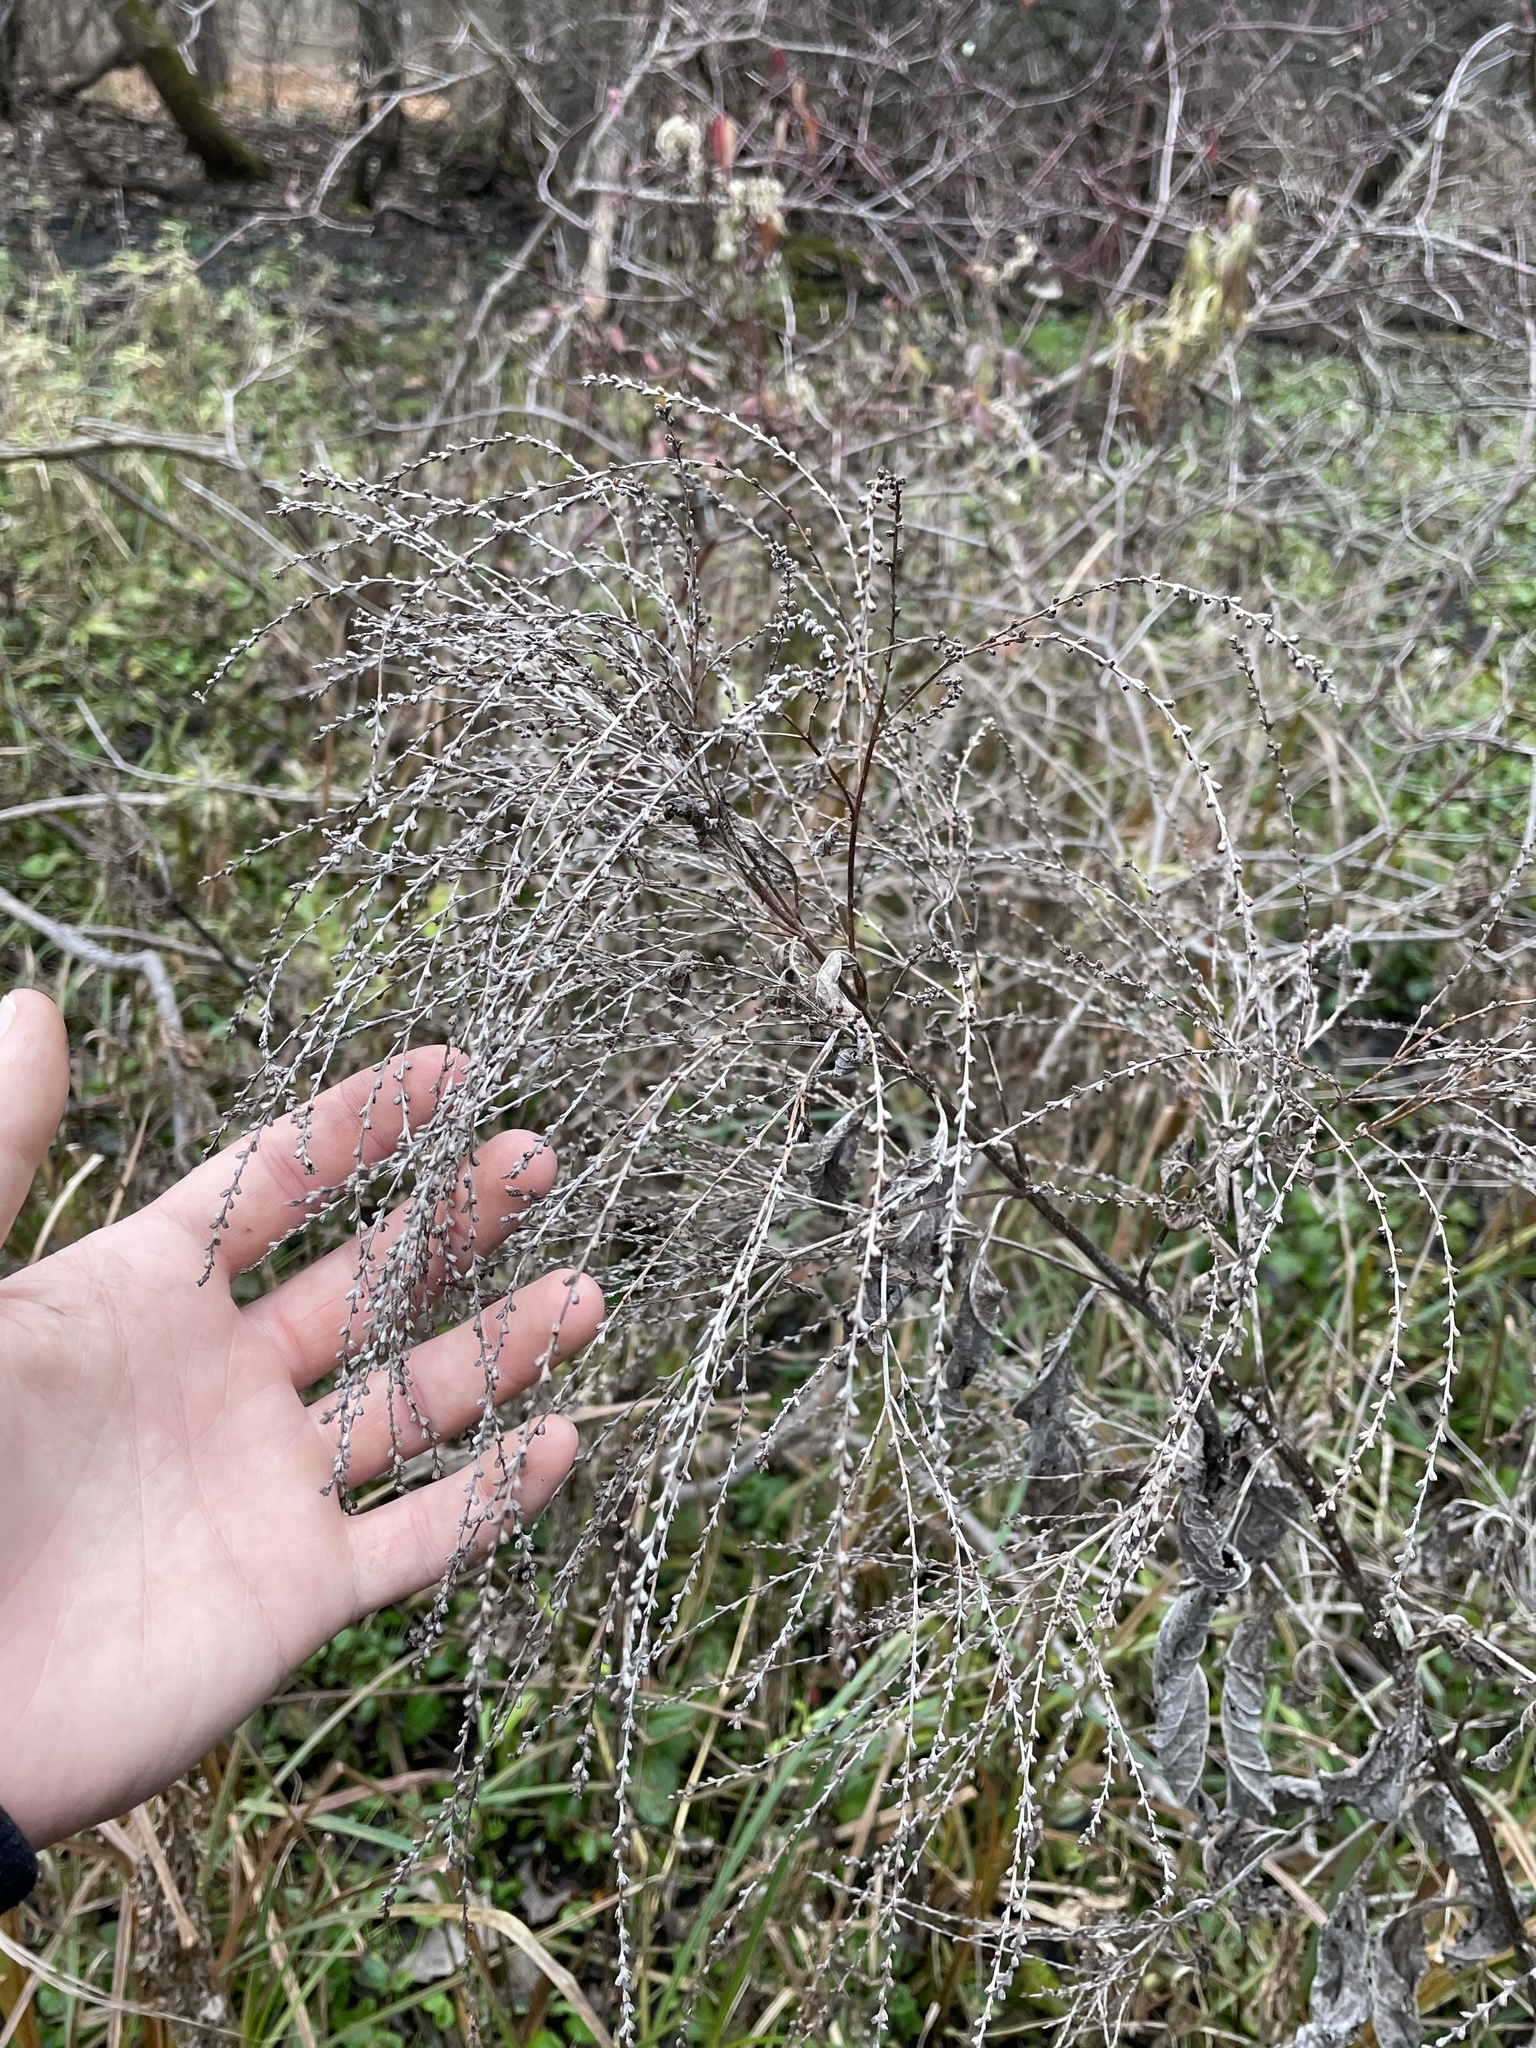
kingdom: Plantae
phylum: Tracheophyta
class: Magnoliopsida
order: Lamiales
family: Verbenaceae
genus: Verbena
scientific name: Verbena urticifolia
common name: Nettle-leaved vervain
